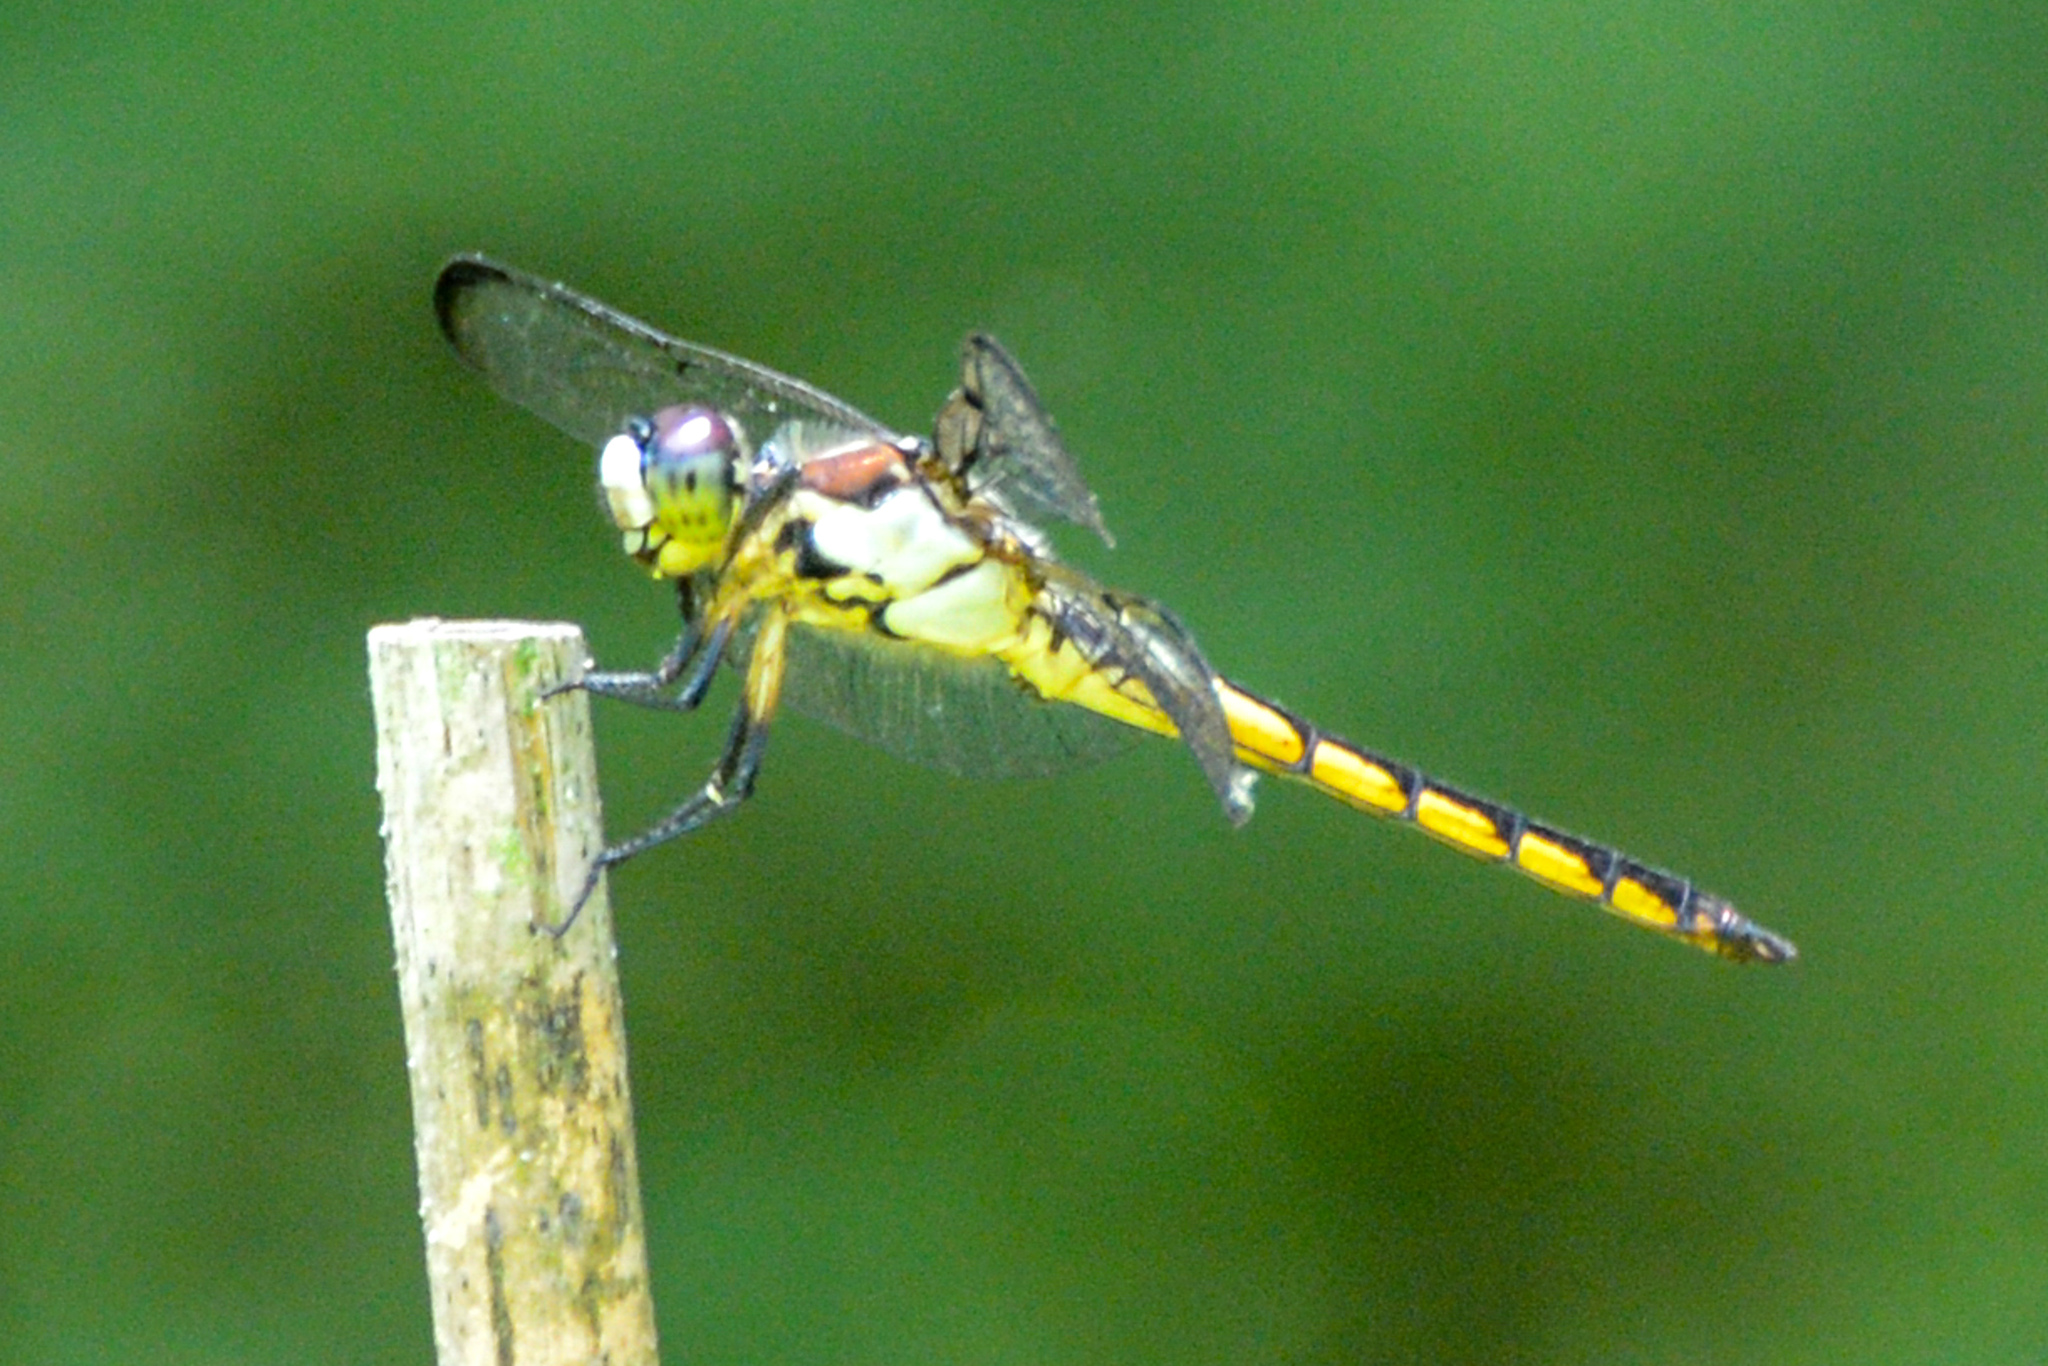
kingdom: Animalia
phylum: Arthropoda
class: Insecta
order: Odonata
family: Libellulidae
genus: Libellula
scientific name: Libellula vibrans
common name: Great blue skimmer
